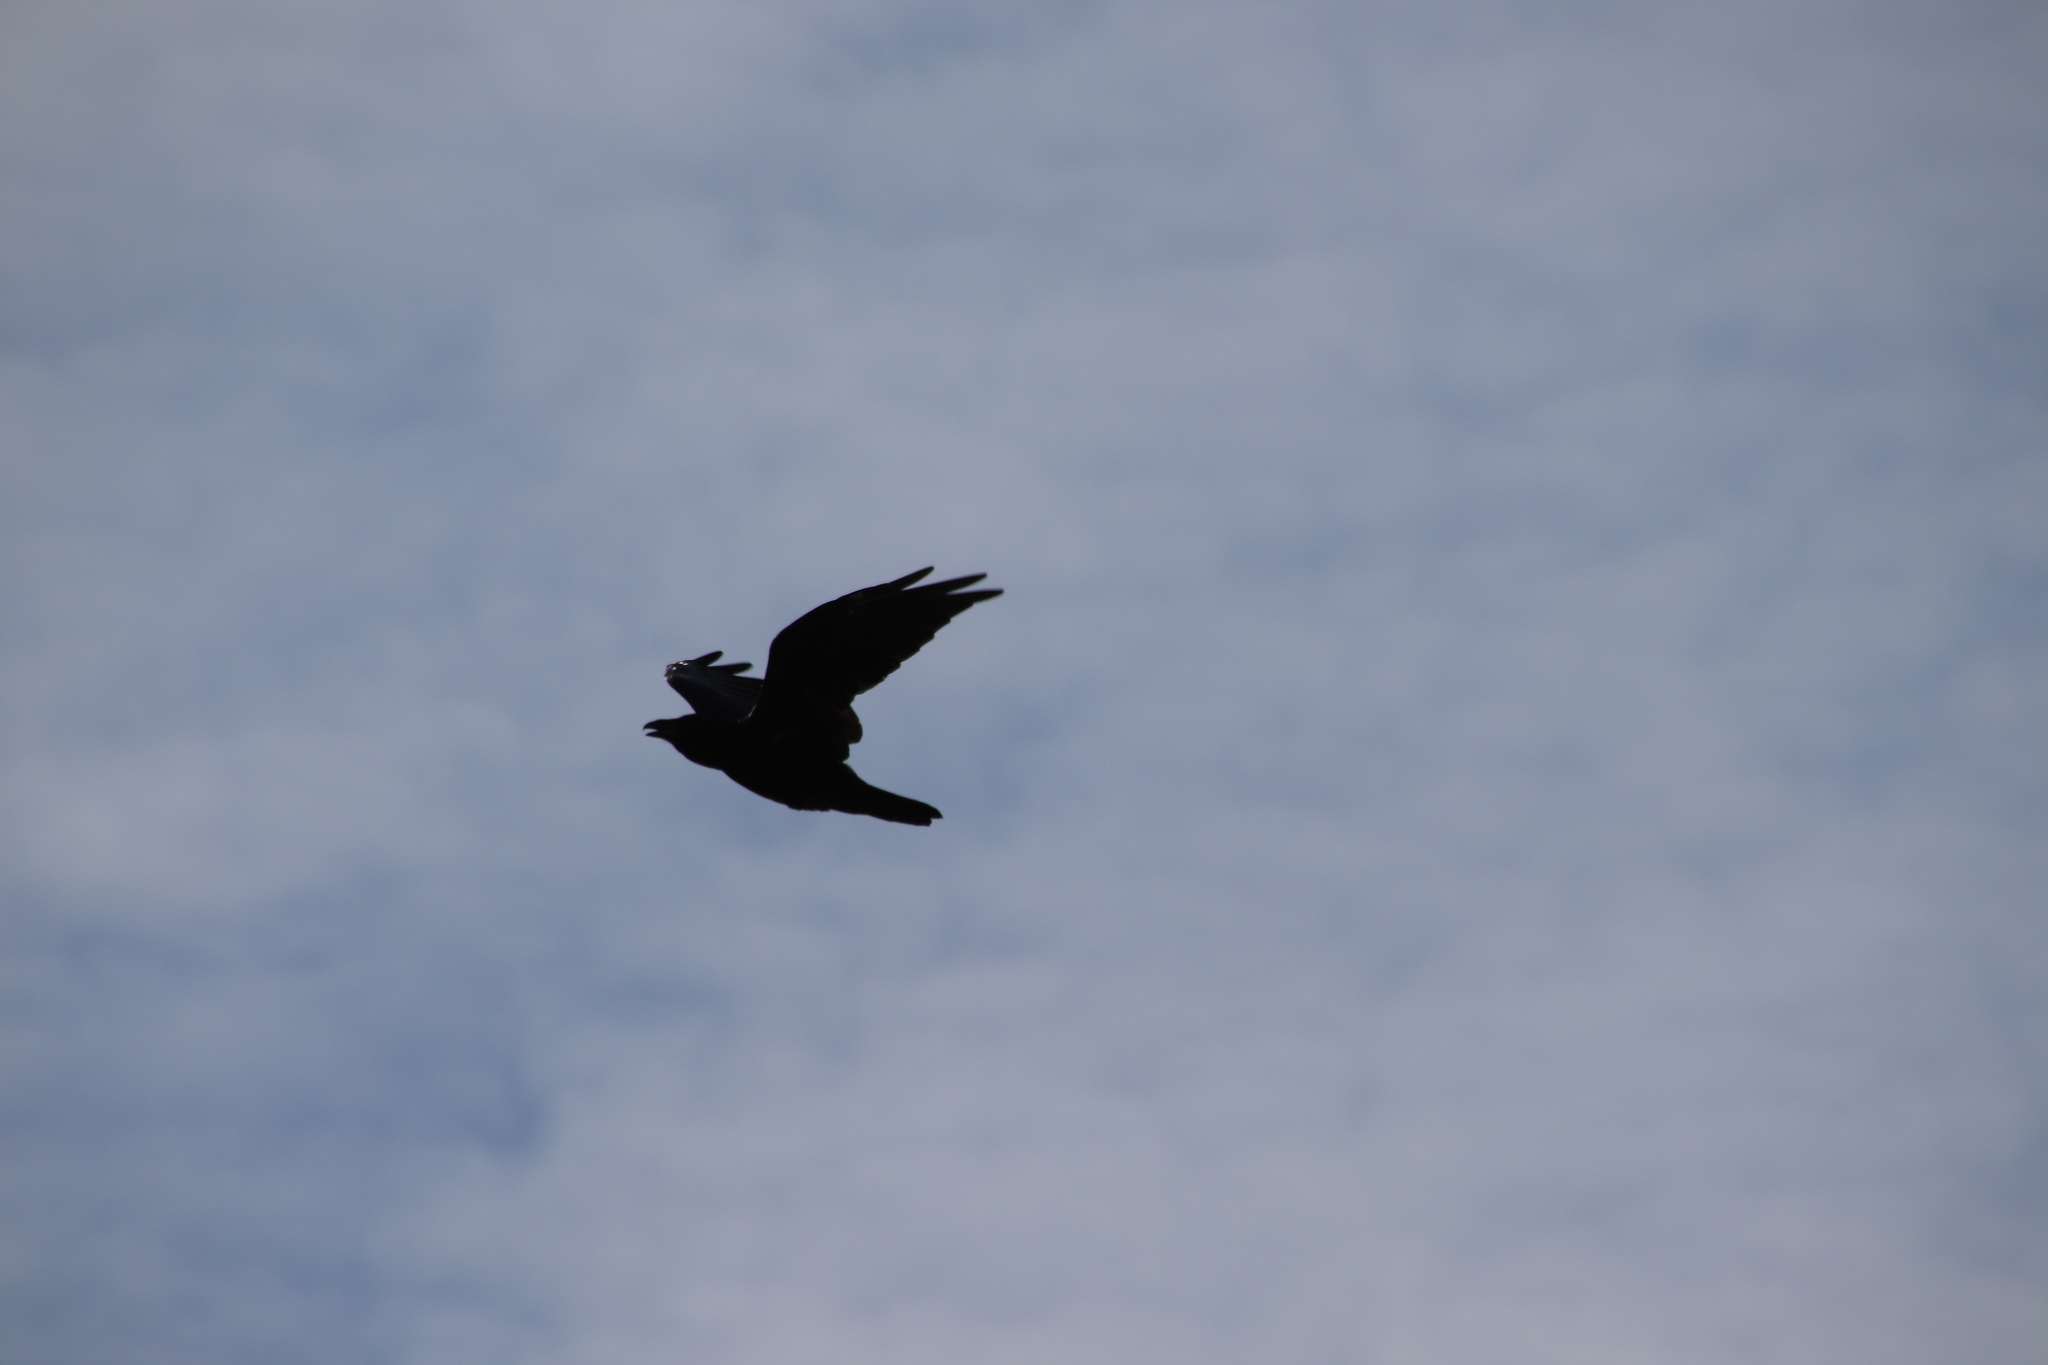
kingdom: Animalia
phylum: Chordata
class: Aves
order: Passeriformes
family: Corvidae
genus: Corvus
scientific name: Corvus corax
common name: Common raven
